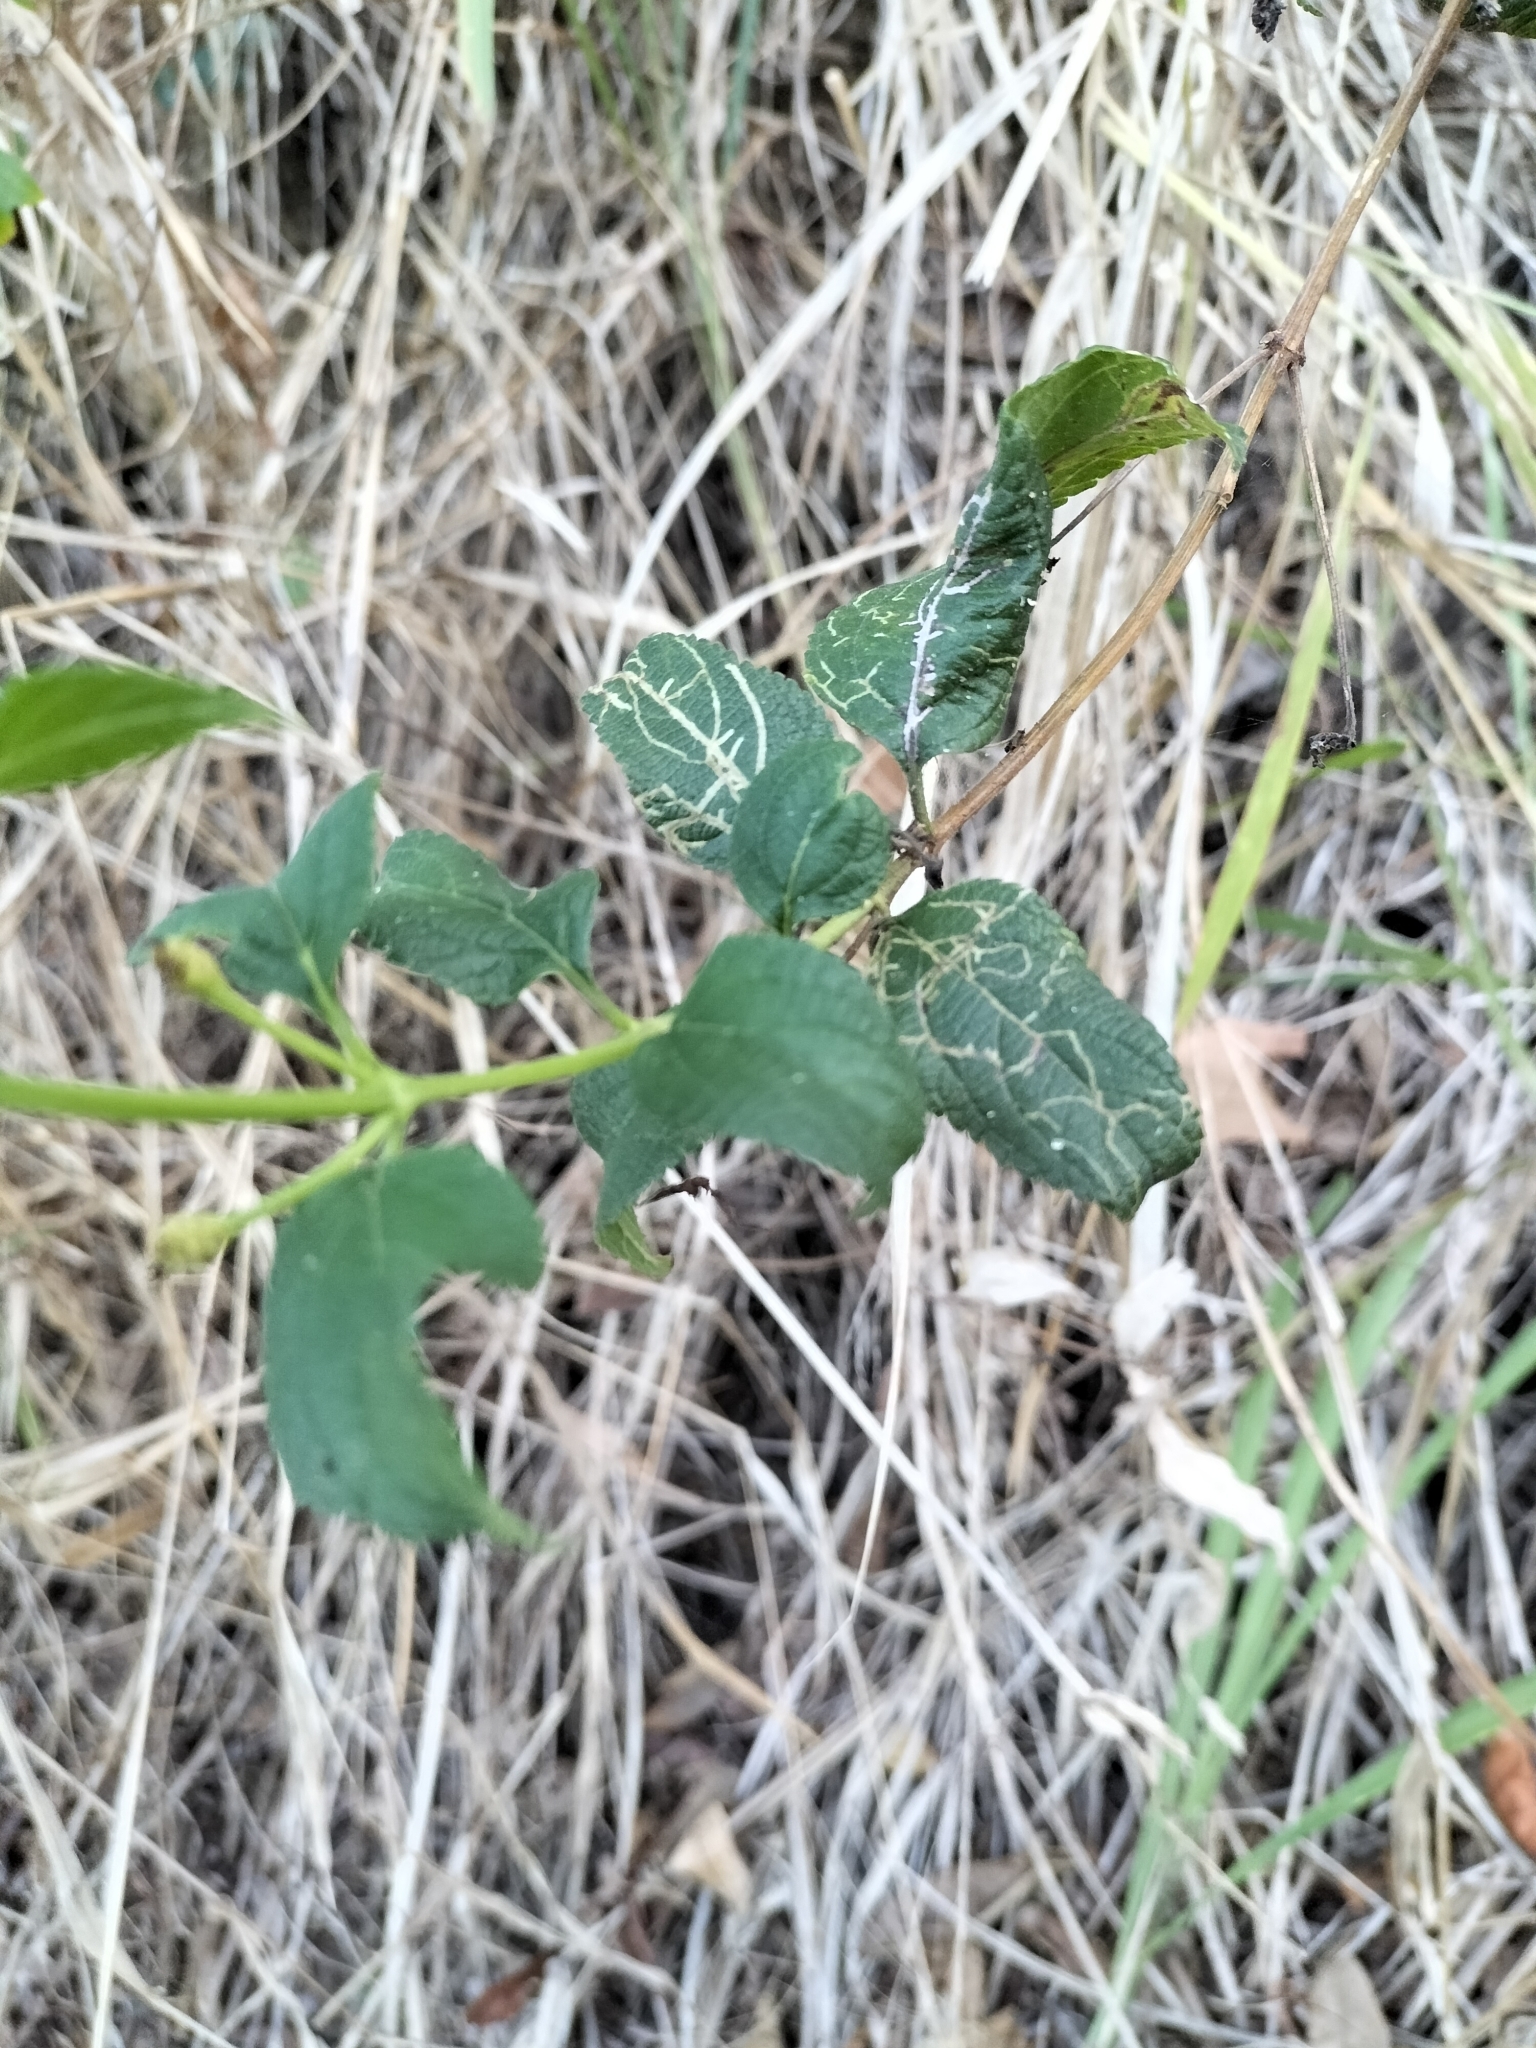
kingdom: Plantae
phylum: Tracheophyta
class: Magnoliopsida
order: Lamiales
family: Verbenaceae
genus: Lantana
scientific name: Lantana camara
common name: Lantana
